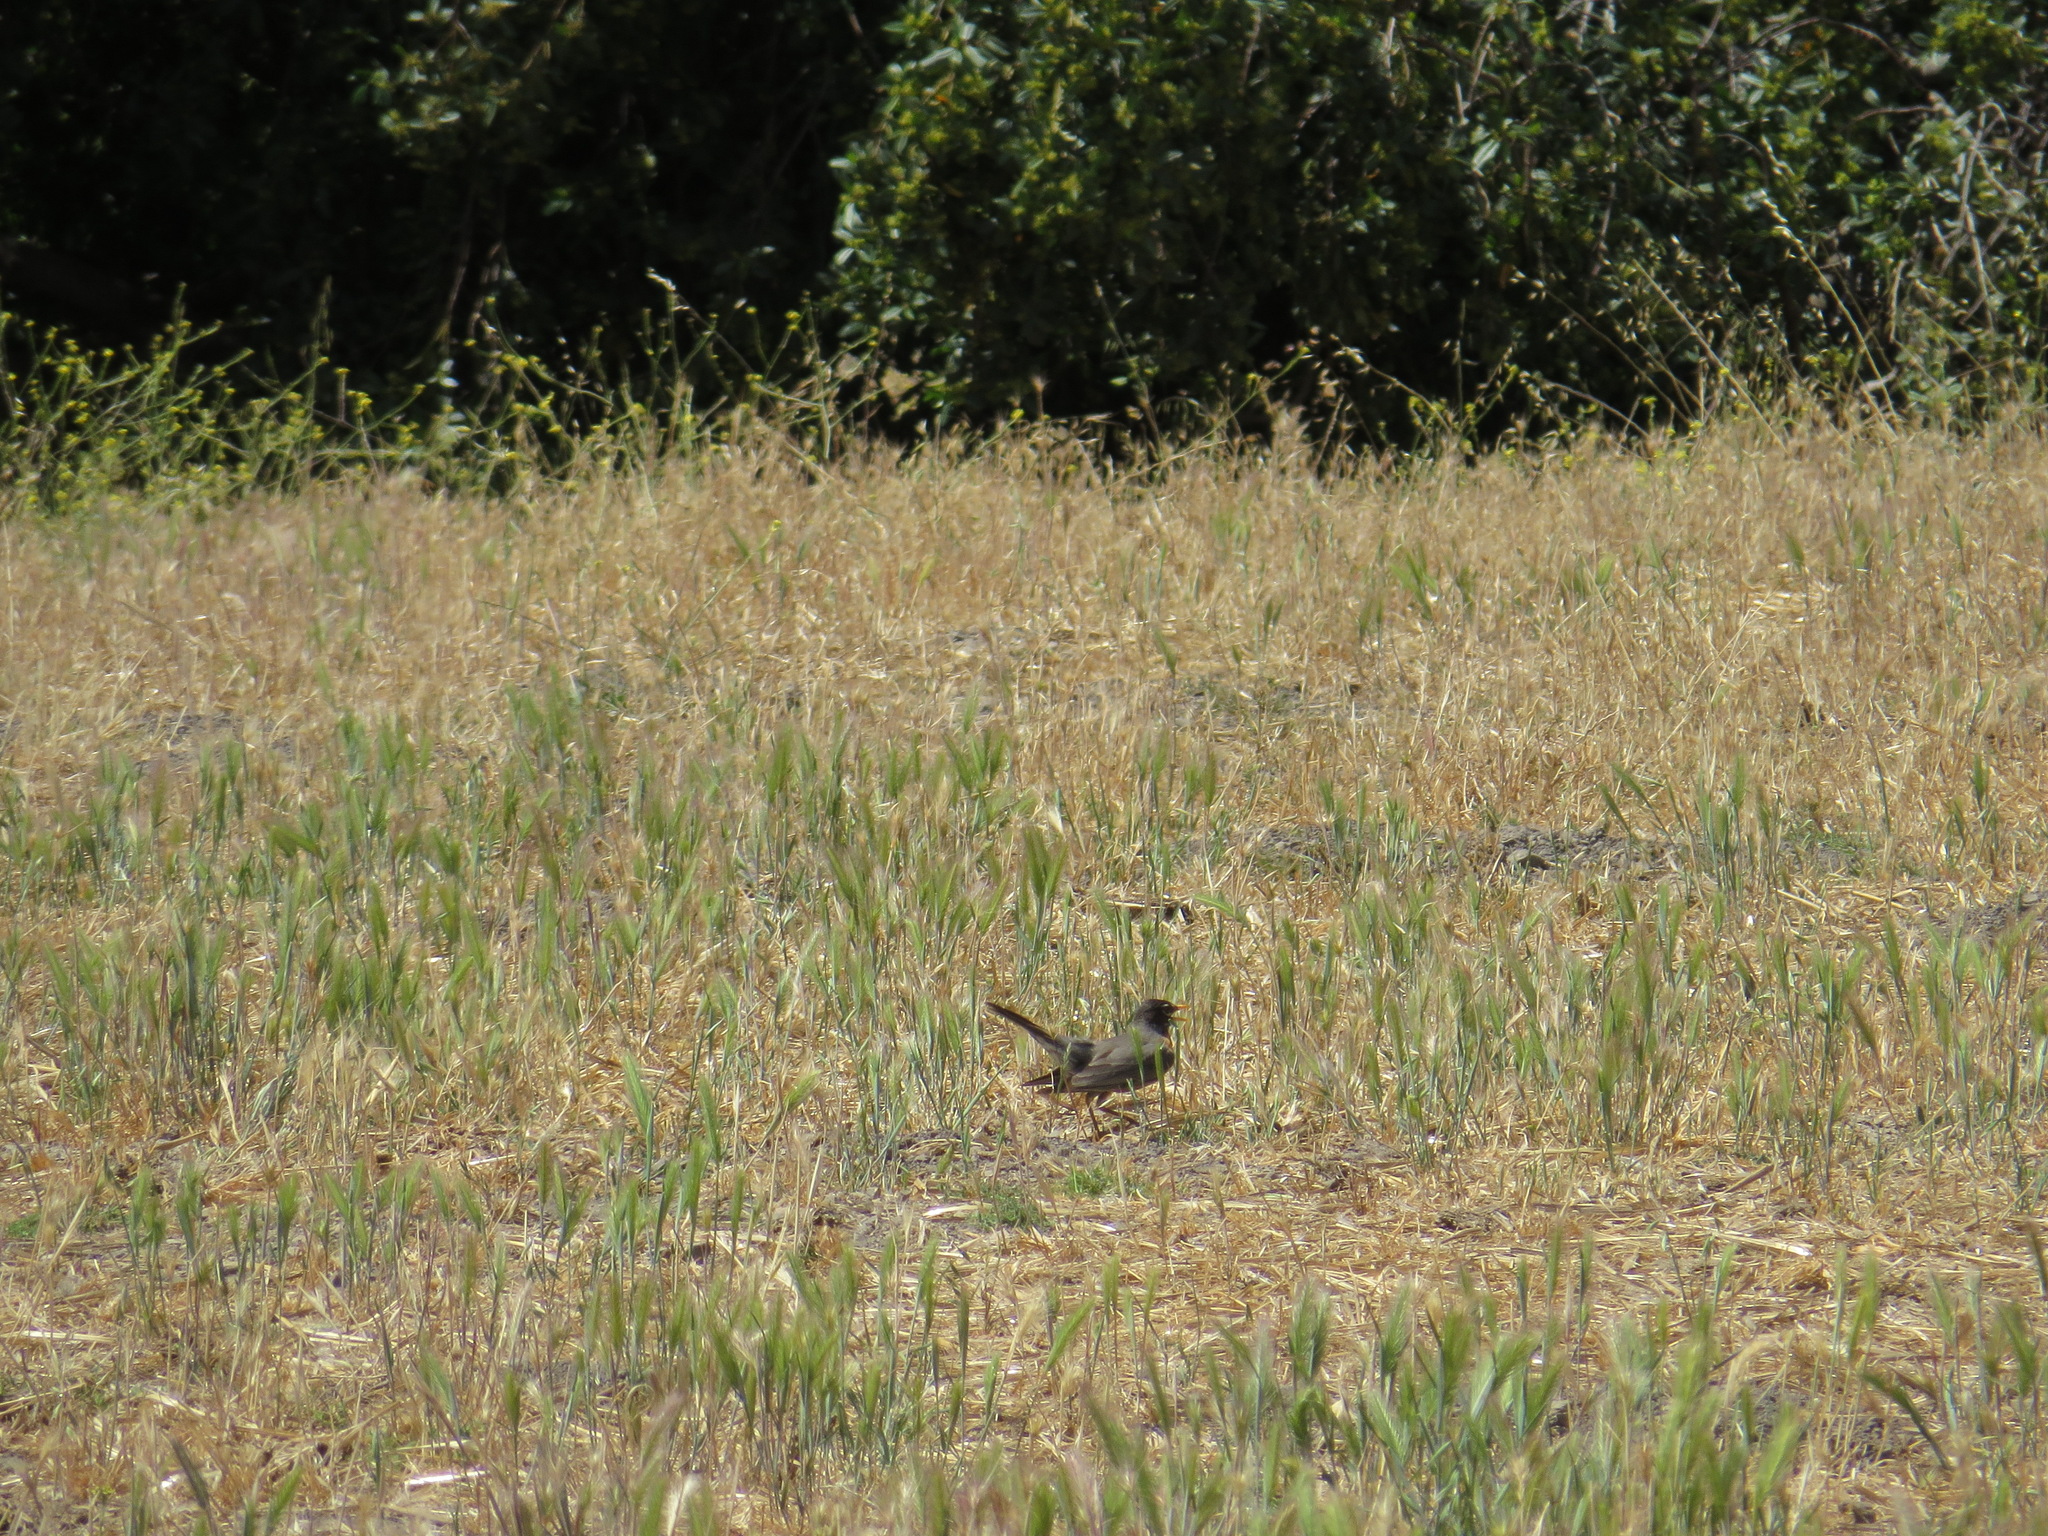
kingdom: Animalia
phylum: Chordata
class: Aves
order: Passeriformes
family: Turdidae
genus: Turdus
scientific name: Turdus migratorius
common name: American robin
